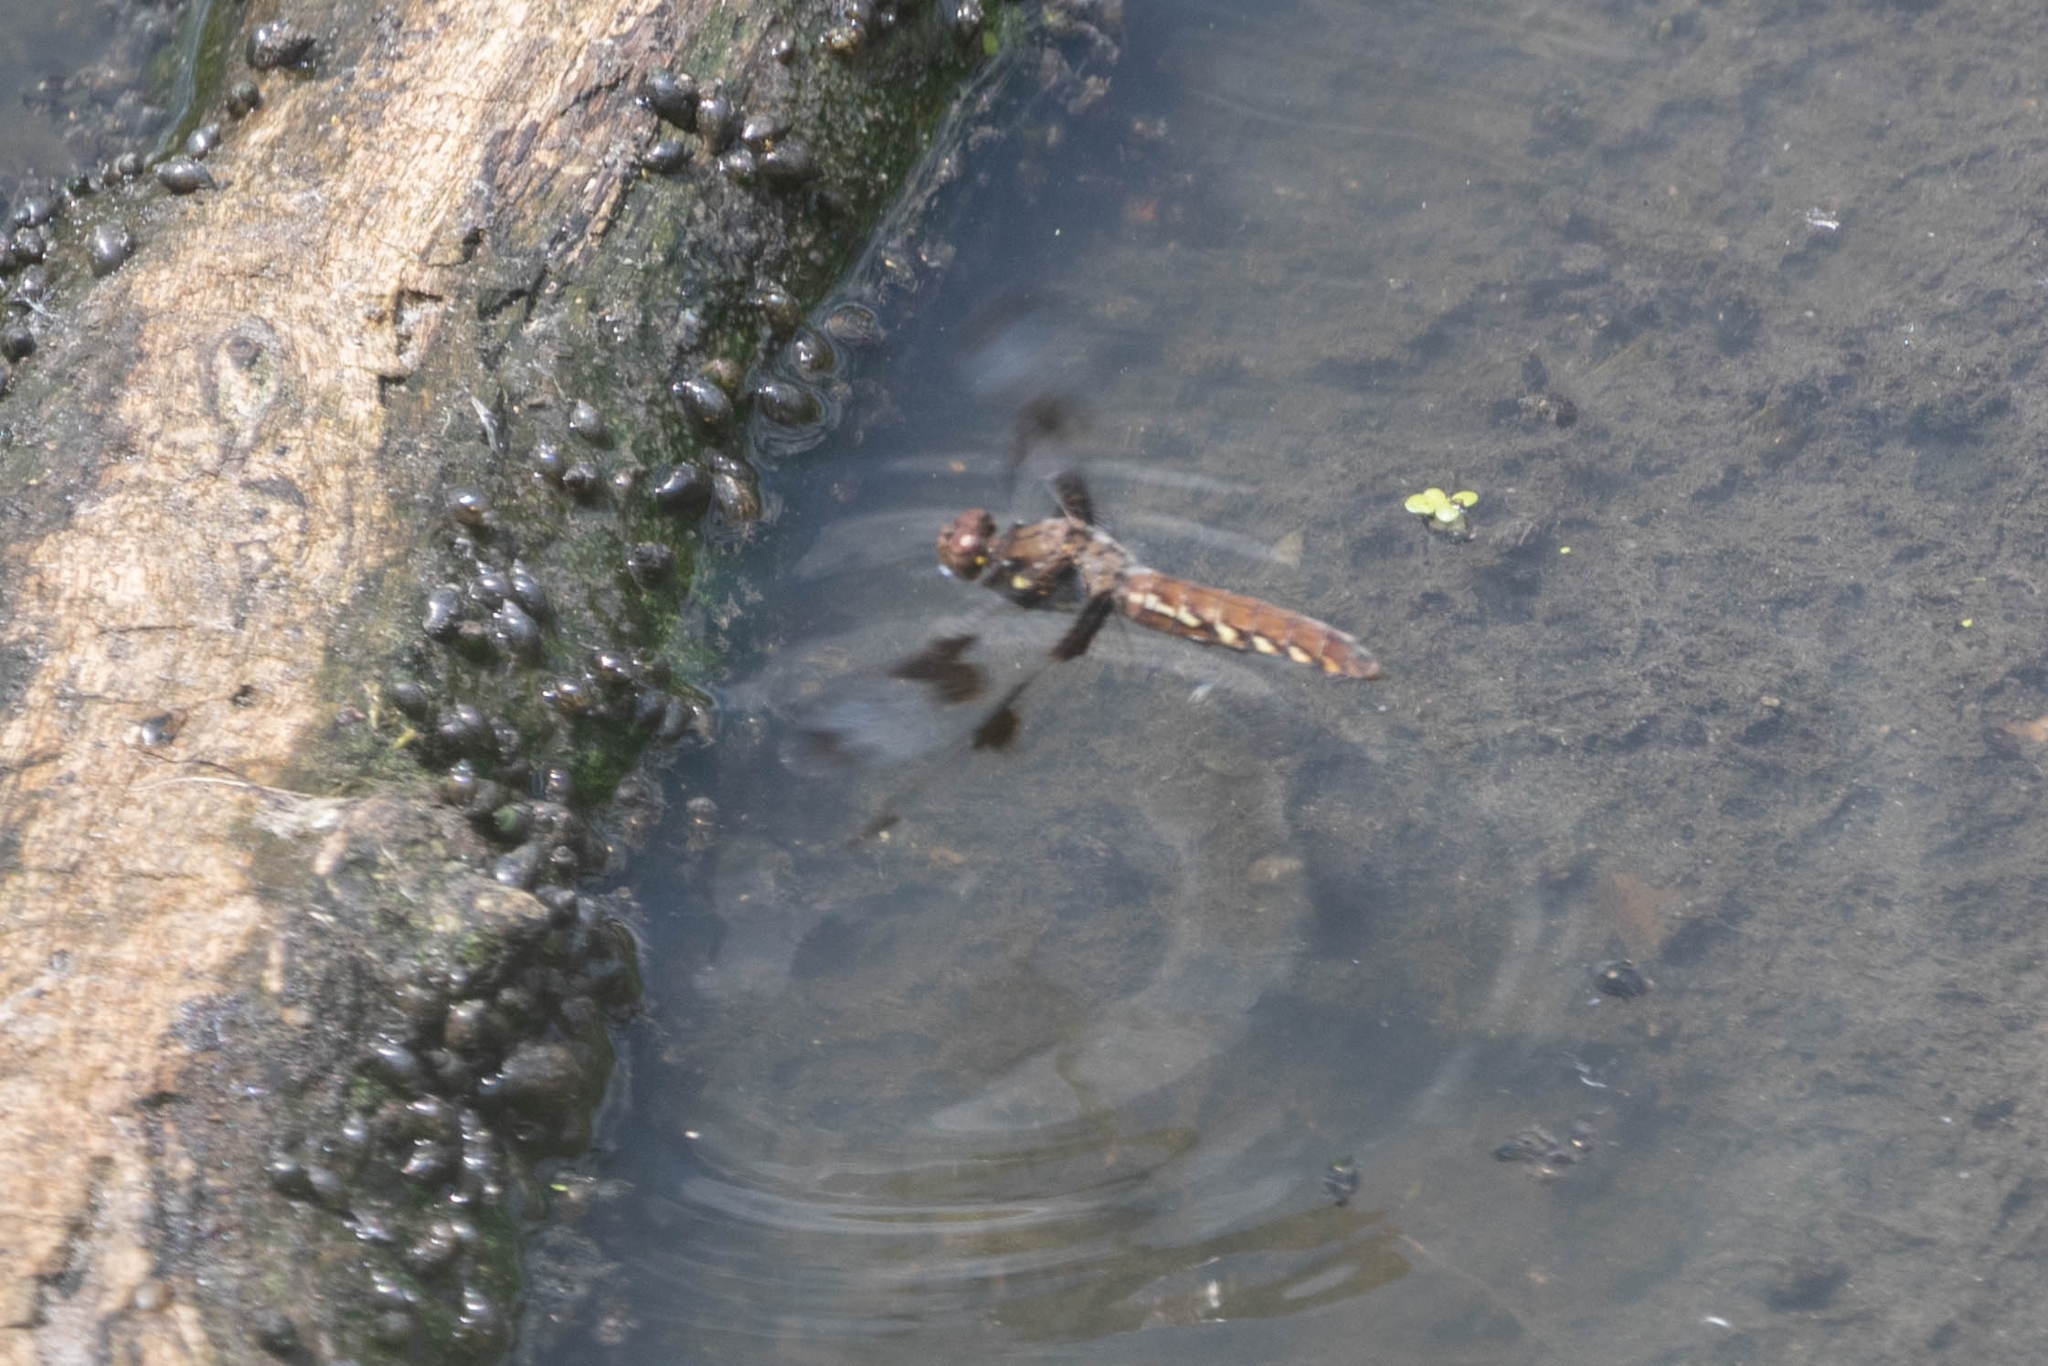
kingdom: Animalia
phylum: Arthropoda
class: Insecta
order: Odonata
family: Libellulidae
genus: Plathemis
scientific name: Plathemis lydia
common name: Common whitetail
